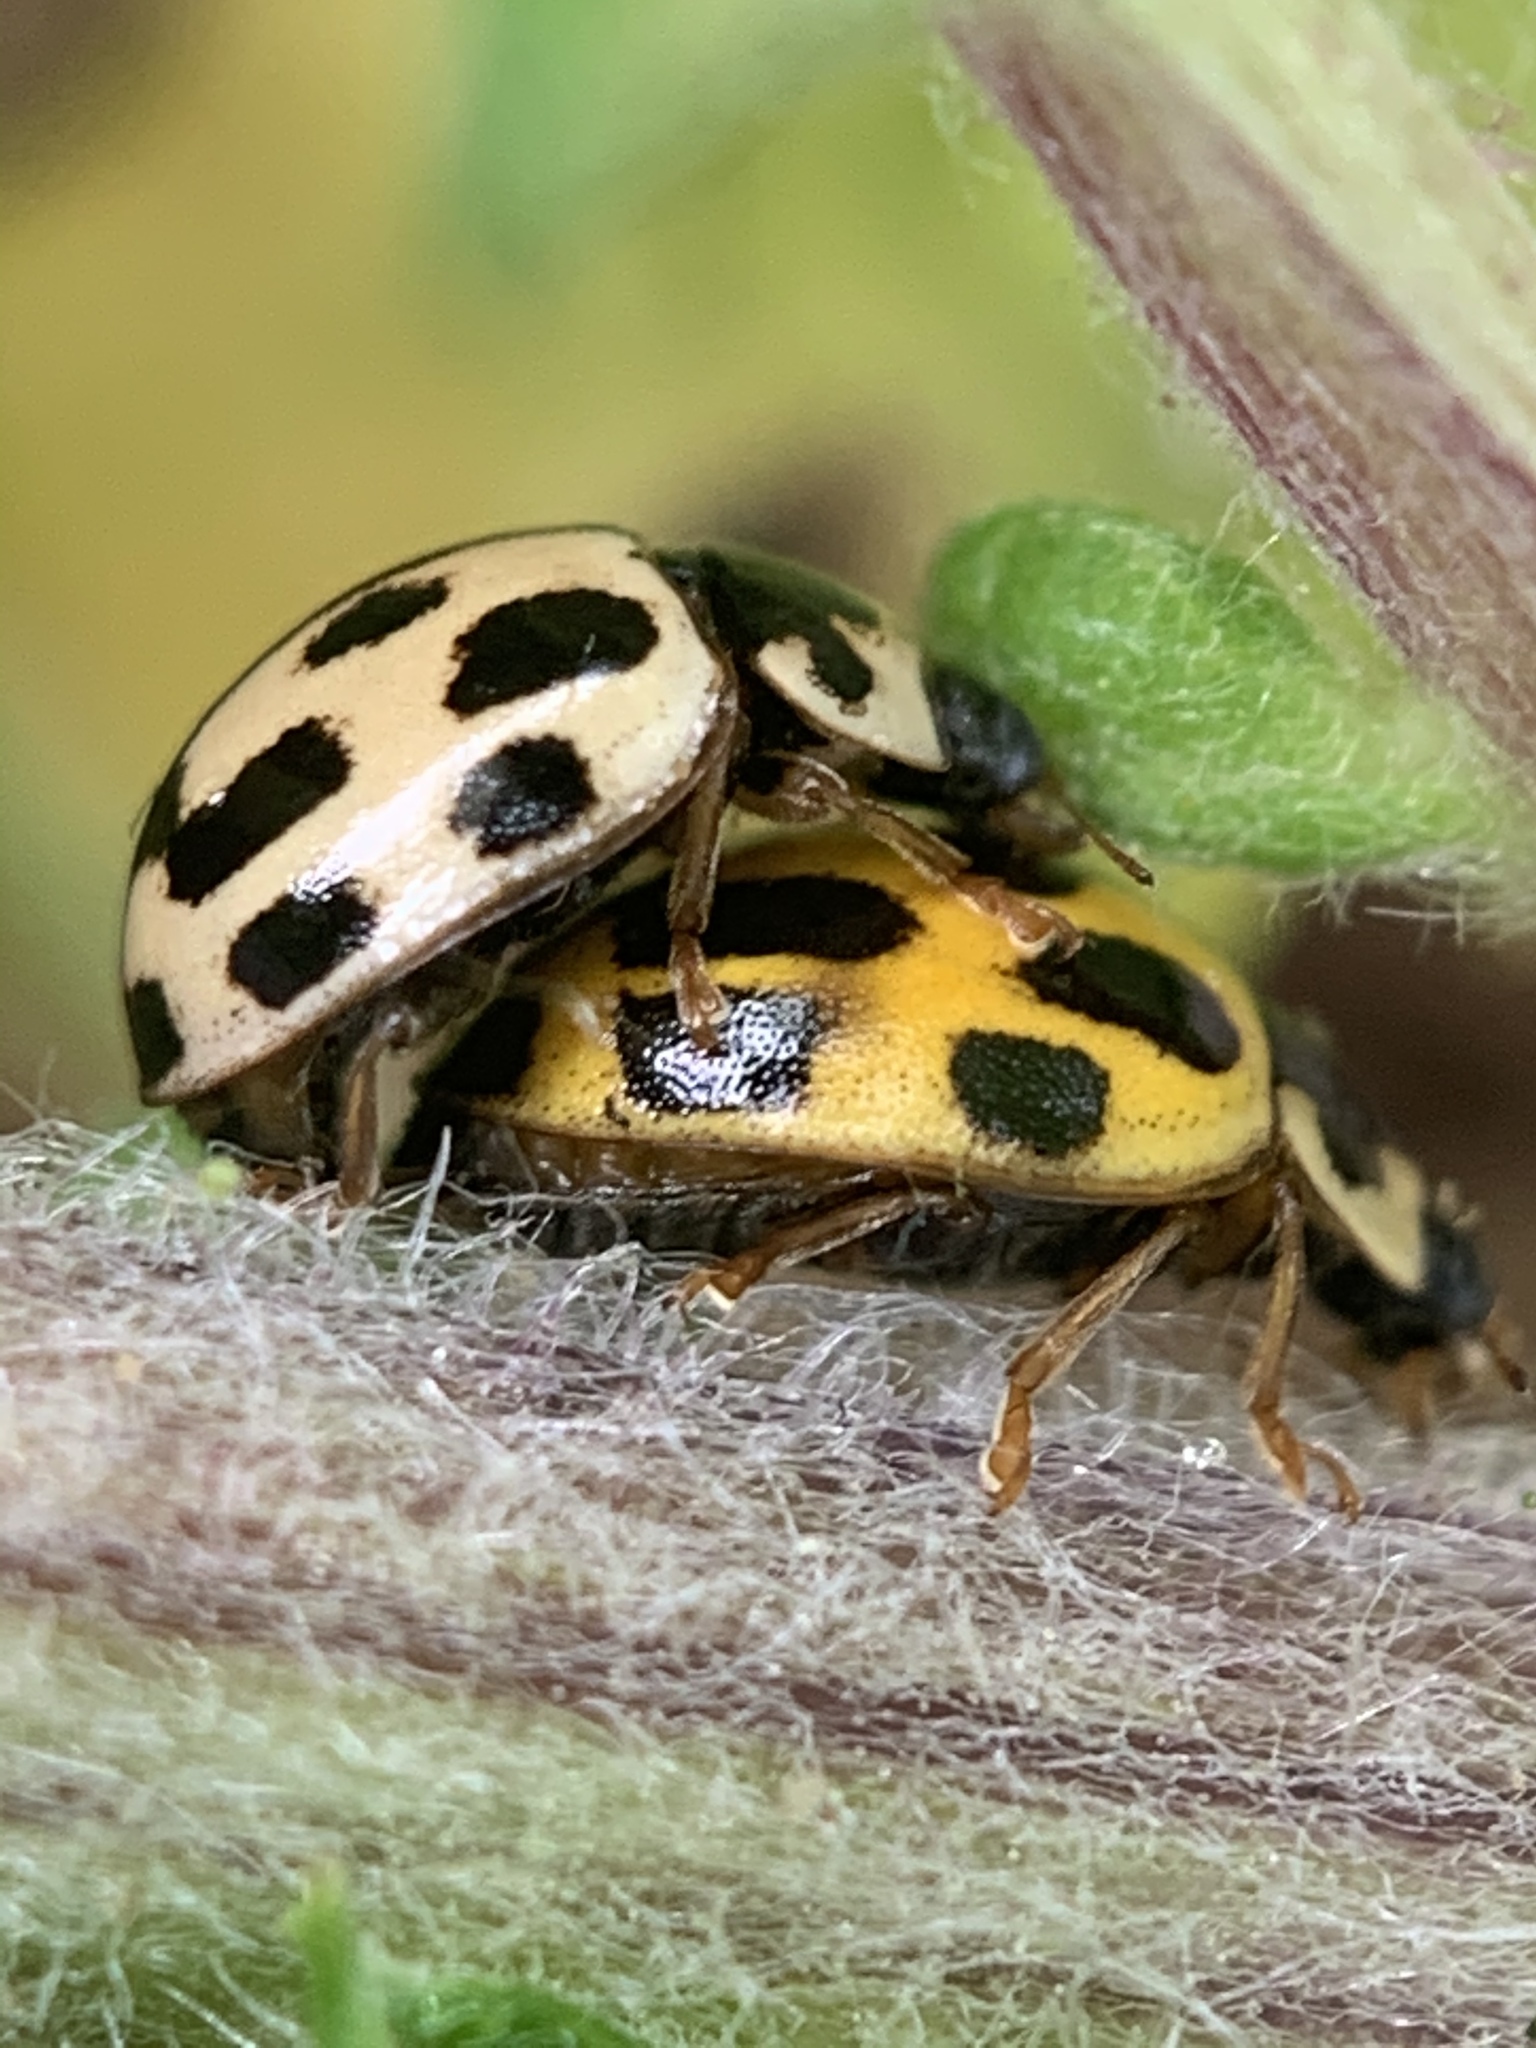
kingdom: Animalia
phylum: Arthropoda
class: Insecta
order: Coleoptera
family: Coccinellidae
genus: Propylaea
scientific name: Propylaea quatuordecimpunctata
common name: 14-spotted ladybird beetle
